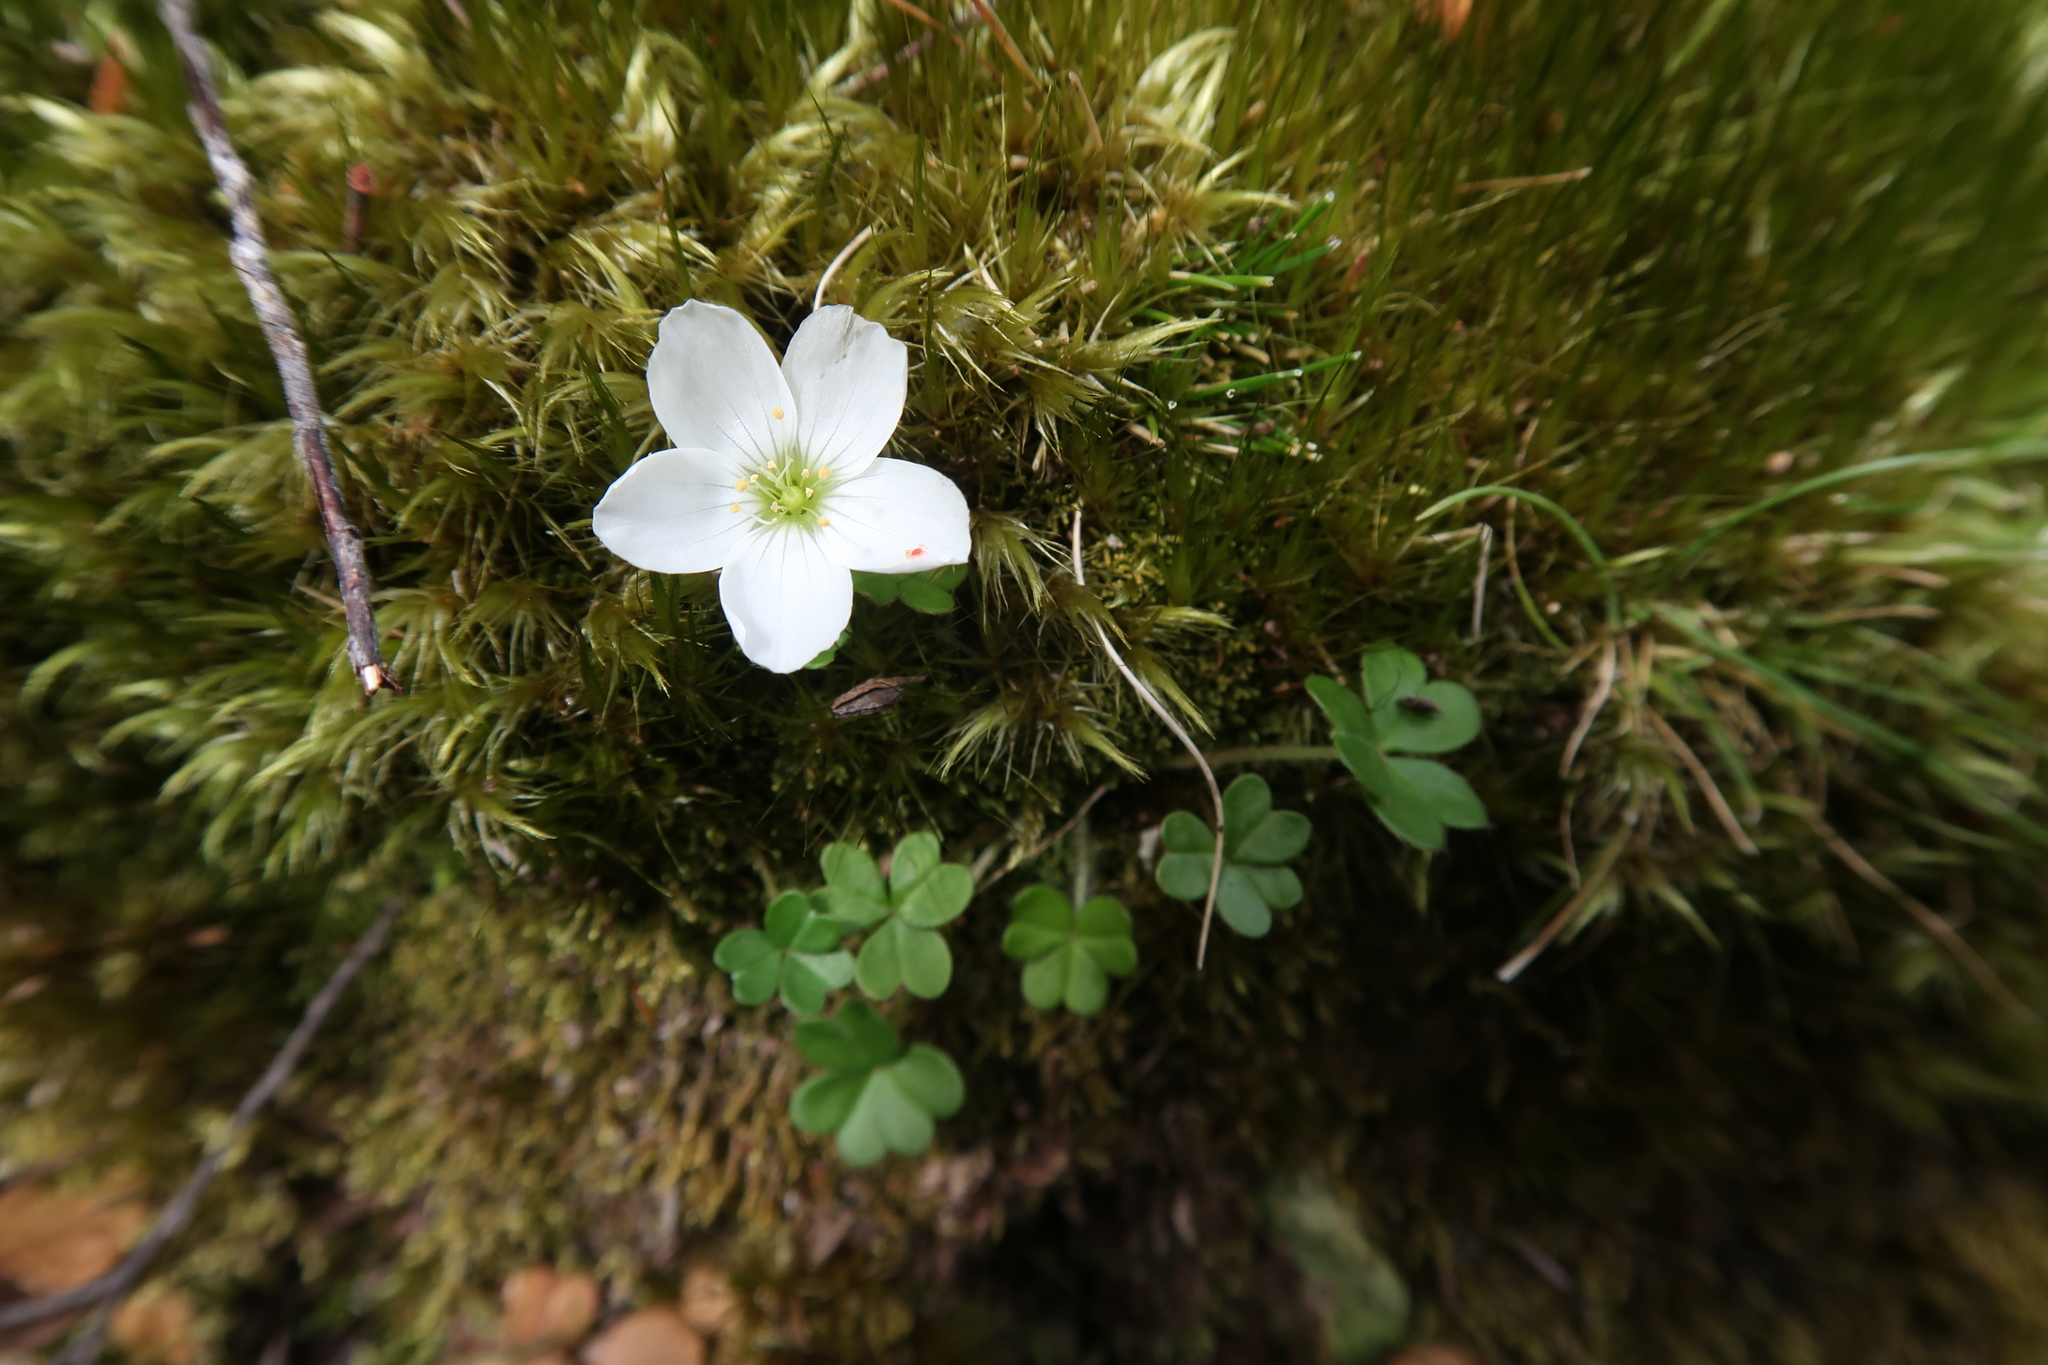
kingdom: Plantae
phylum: Tracheophyta
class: Magnoliopsida
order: Oxalidales
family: Oxalidaceae
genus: Oxalis
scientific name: Oxalis magellanica
